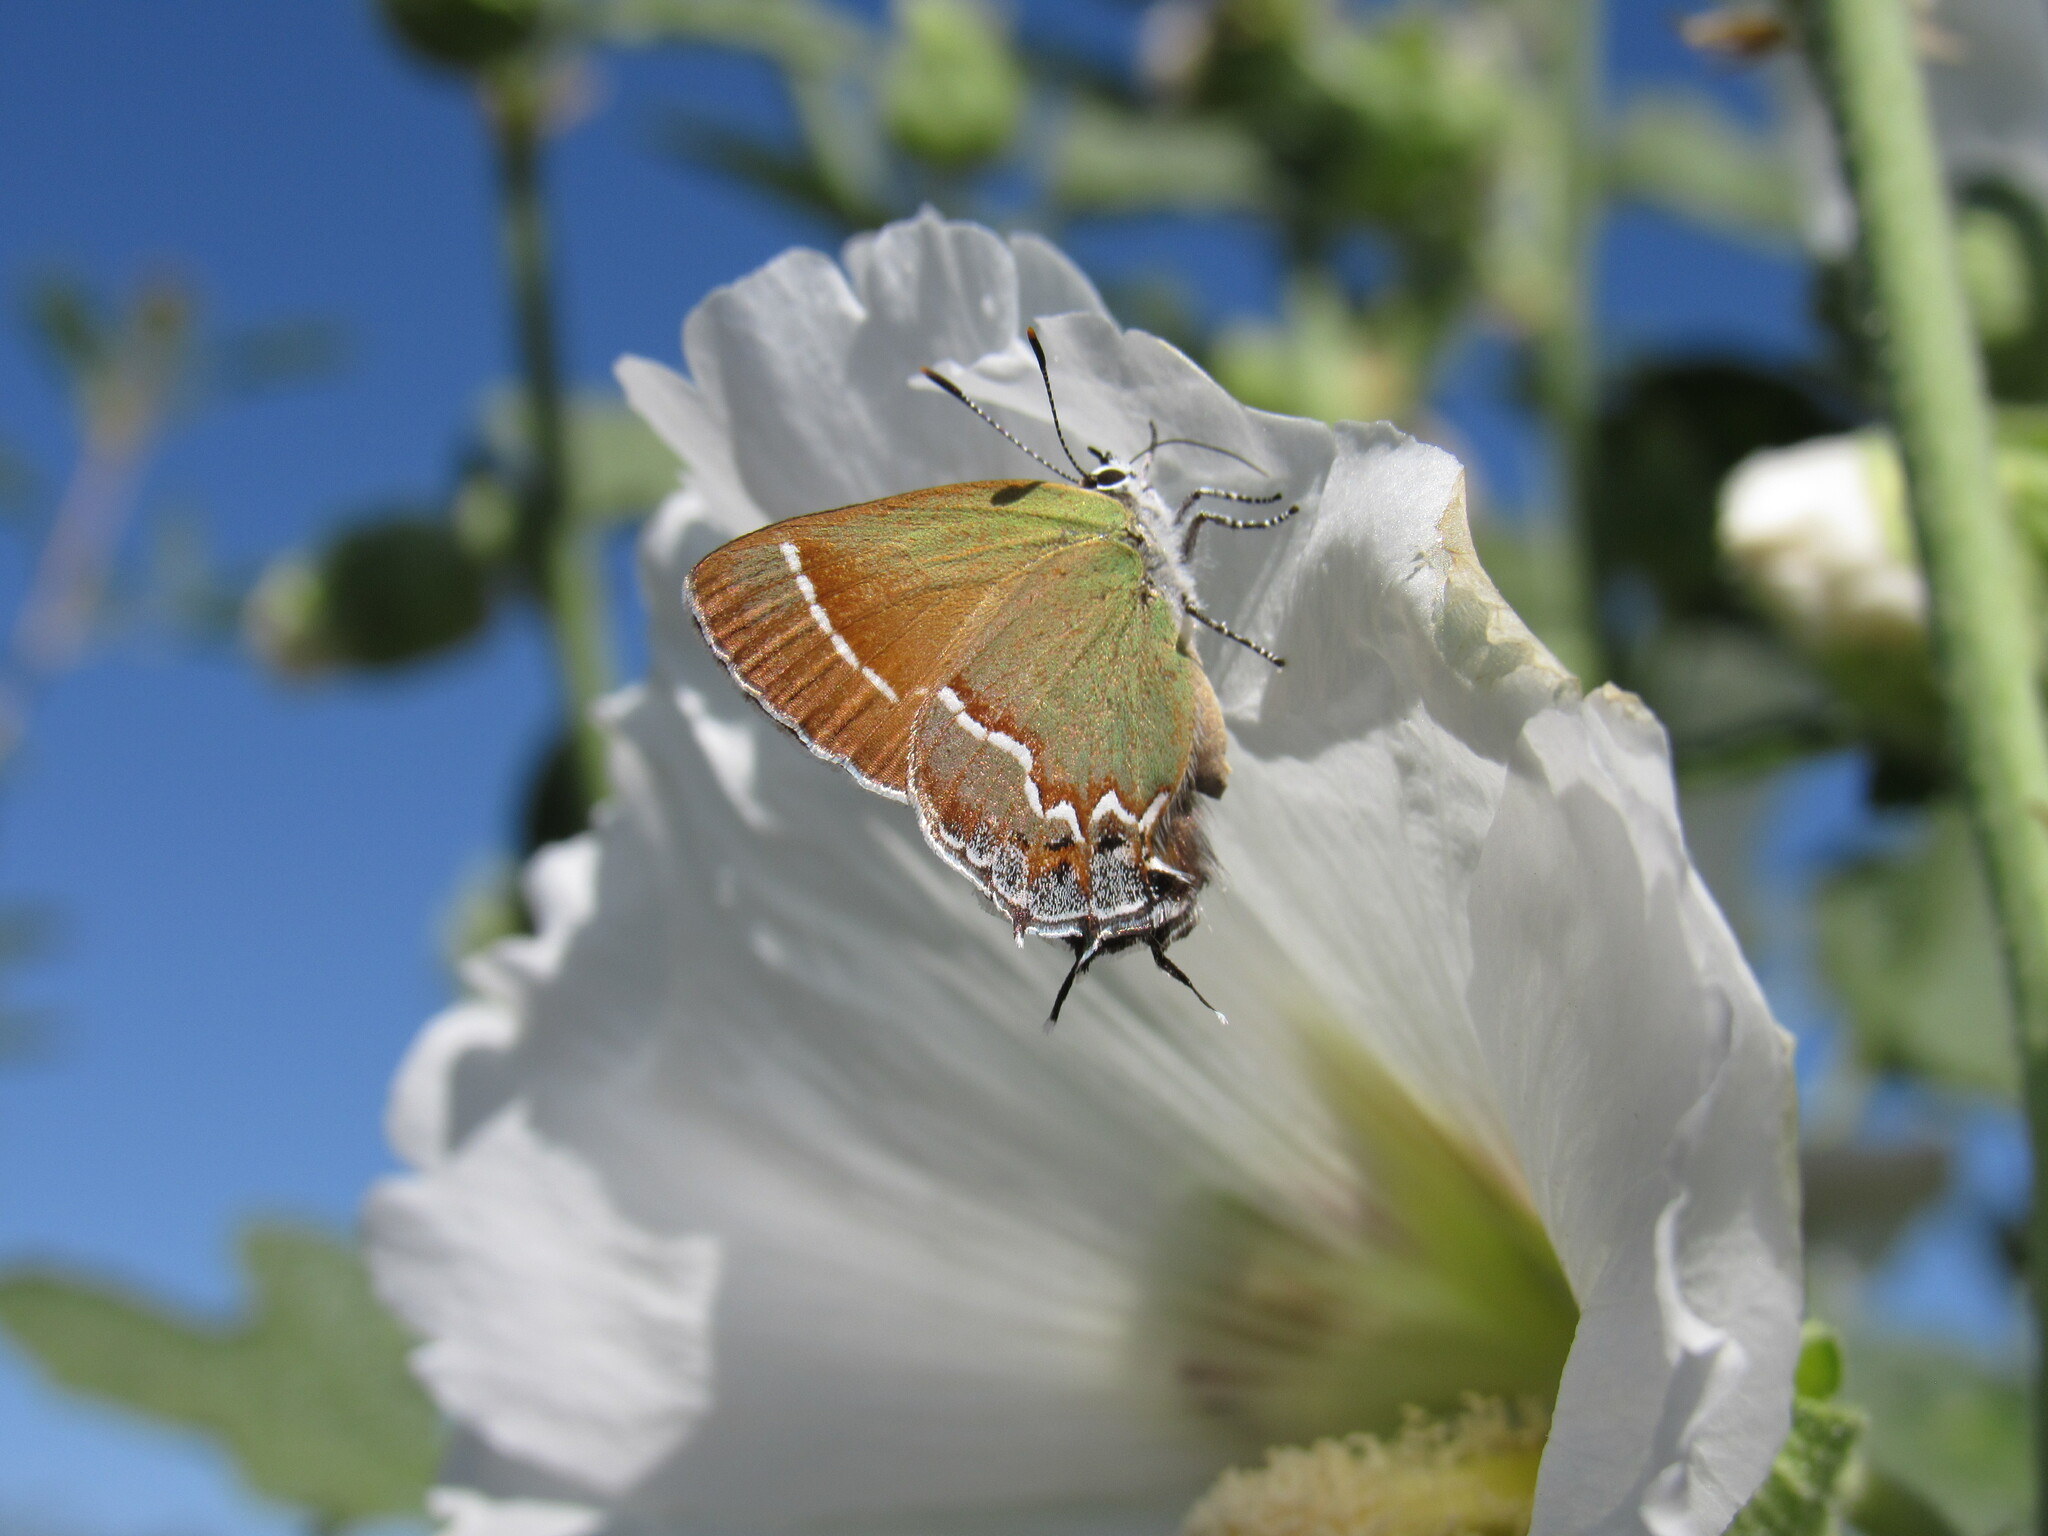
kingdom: Animalia
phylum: Arthropoda
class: Insecta
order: Lepidoptera
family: Lycaenidae
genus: Mitoura
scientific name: Mitoura gryneus
